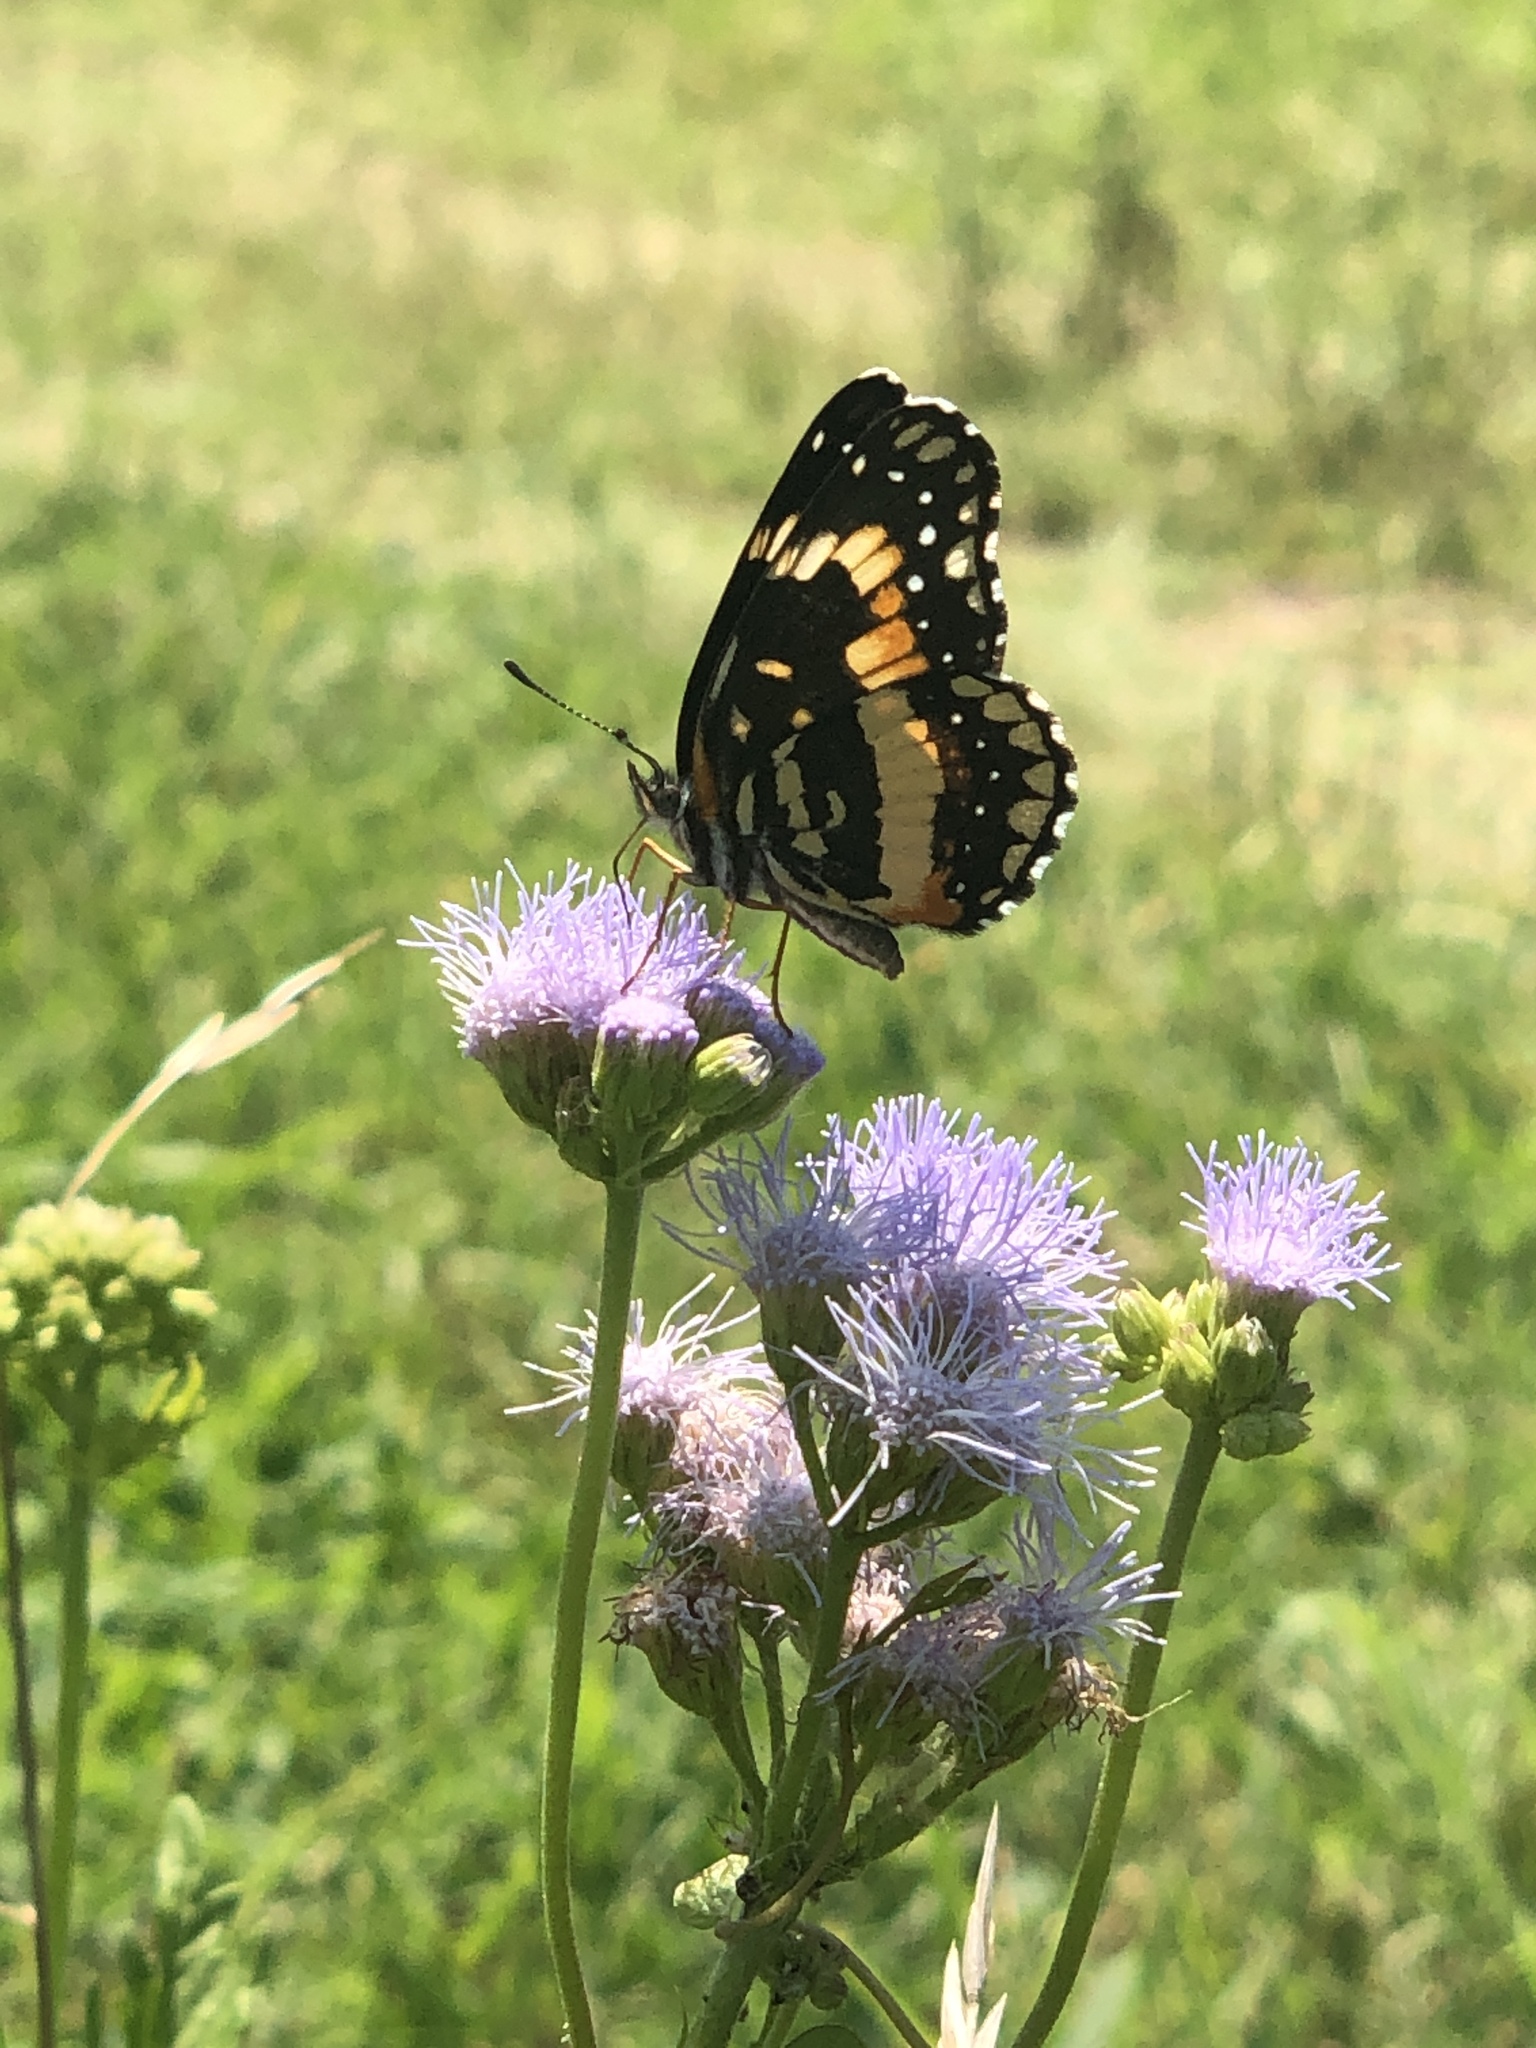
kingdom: Animalia
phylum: Arthropoda
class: Insecta
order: Lepidoptera
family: Nymphalidae
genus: Chlosyne
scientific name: Chlosyne lacinia
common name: Bordered patch
